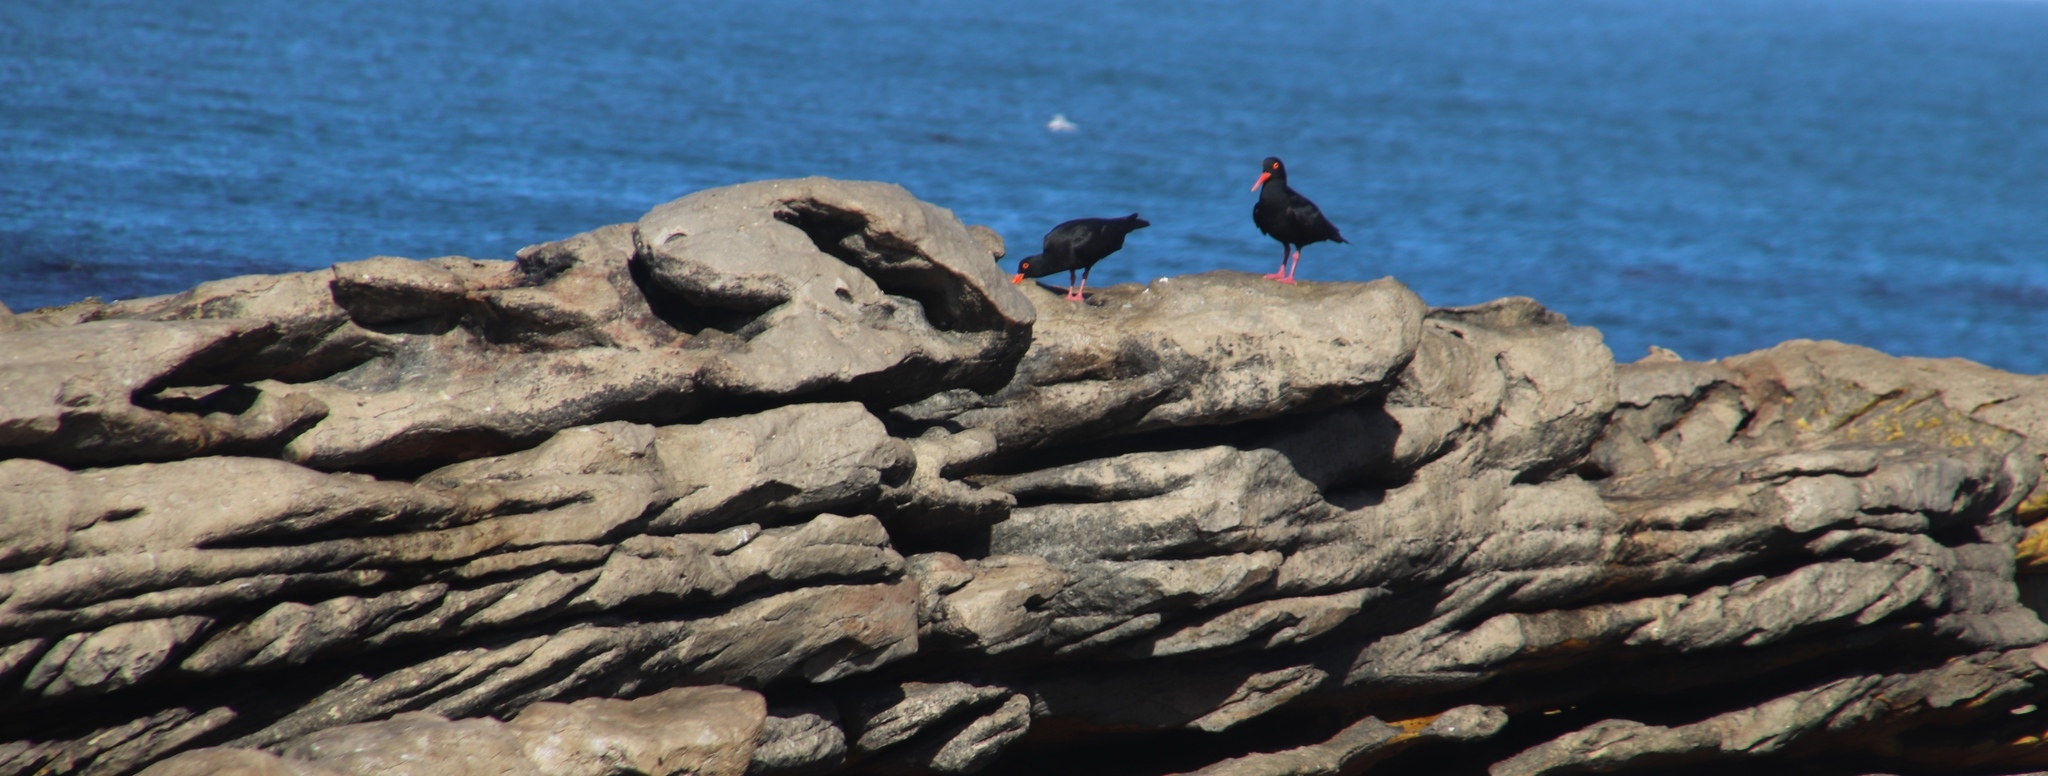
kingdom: Animalia
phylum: Chordata
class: Aves
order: Charadriiformes
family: Haematopodidae
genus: Haematopus
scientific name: Haematopus moquini
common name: African oystercatcher
